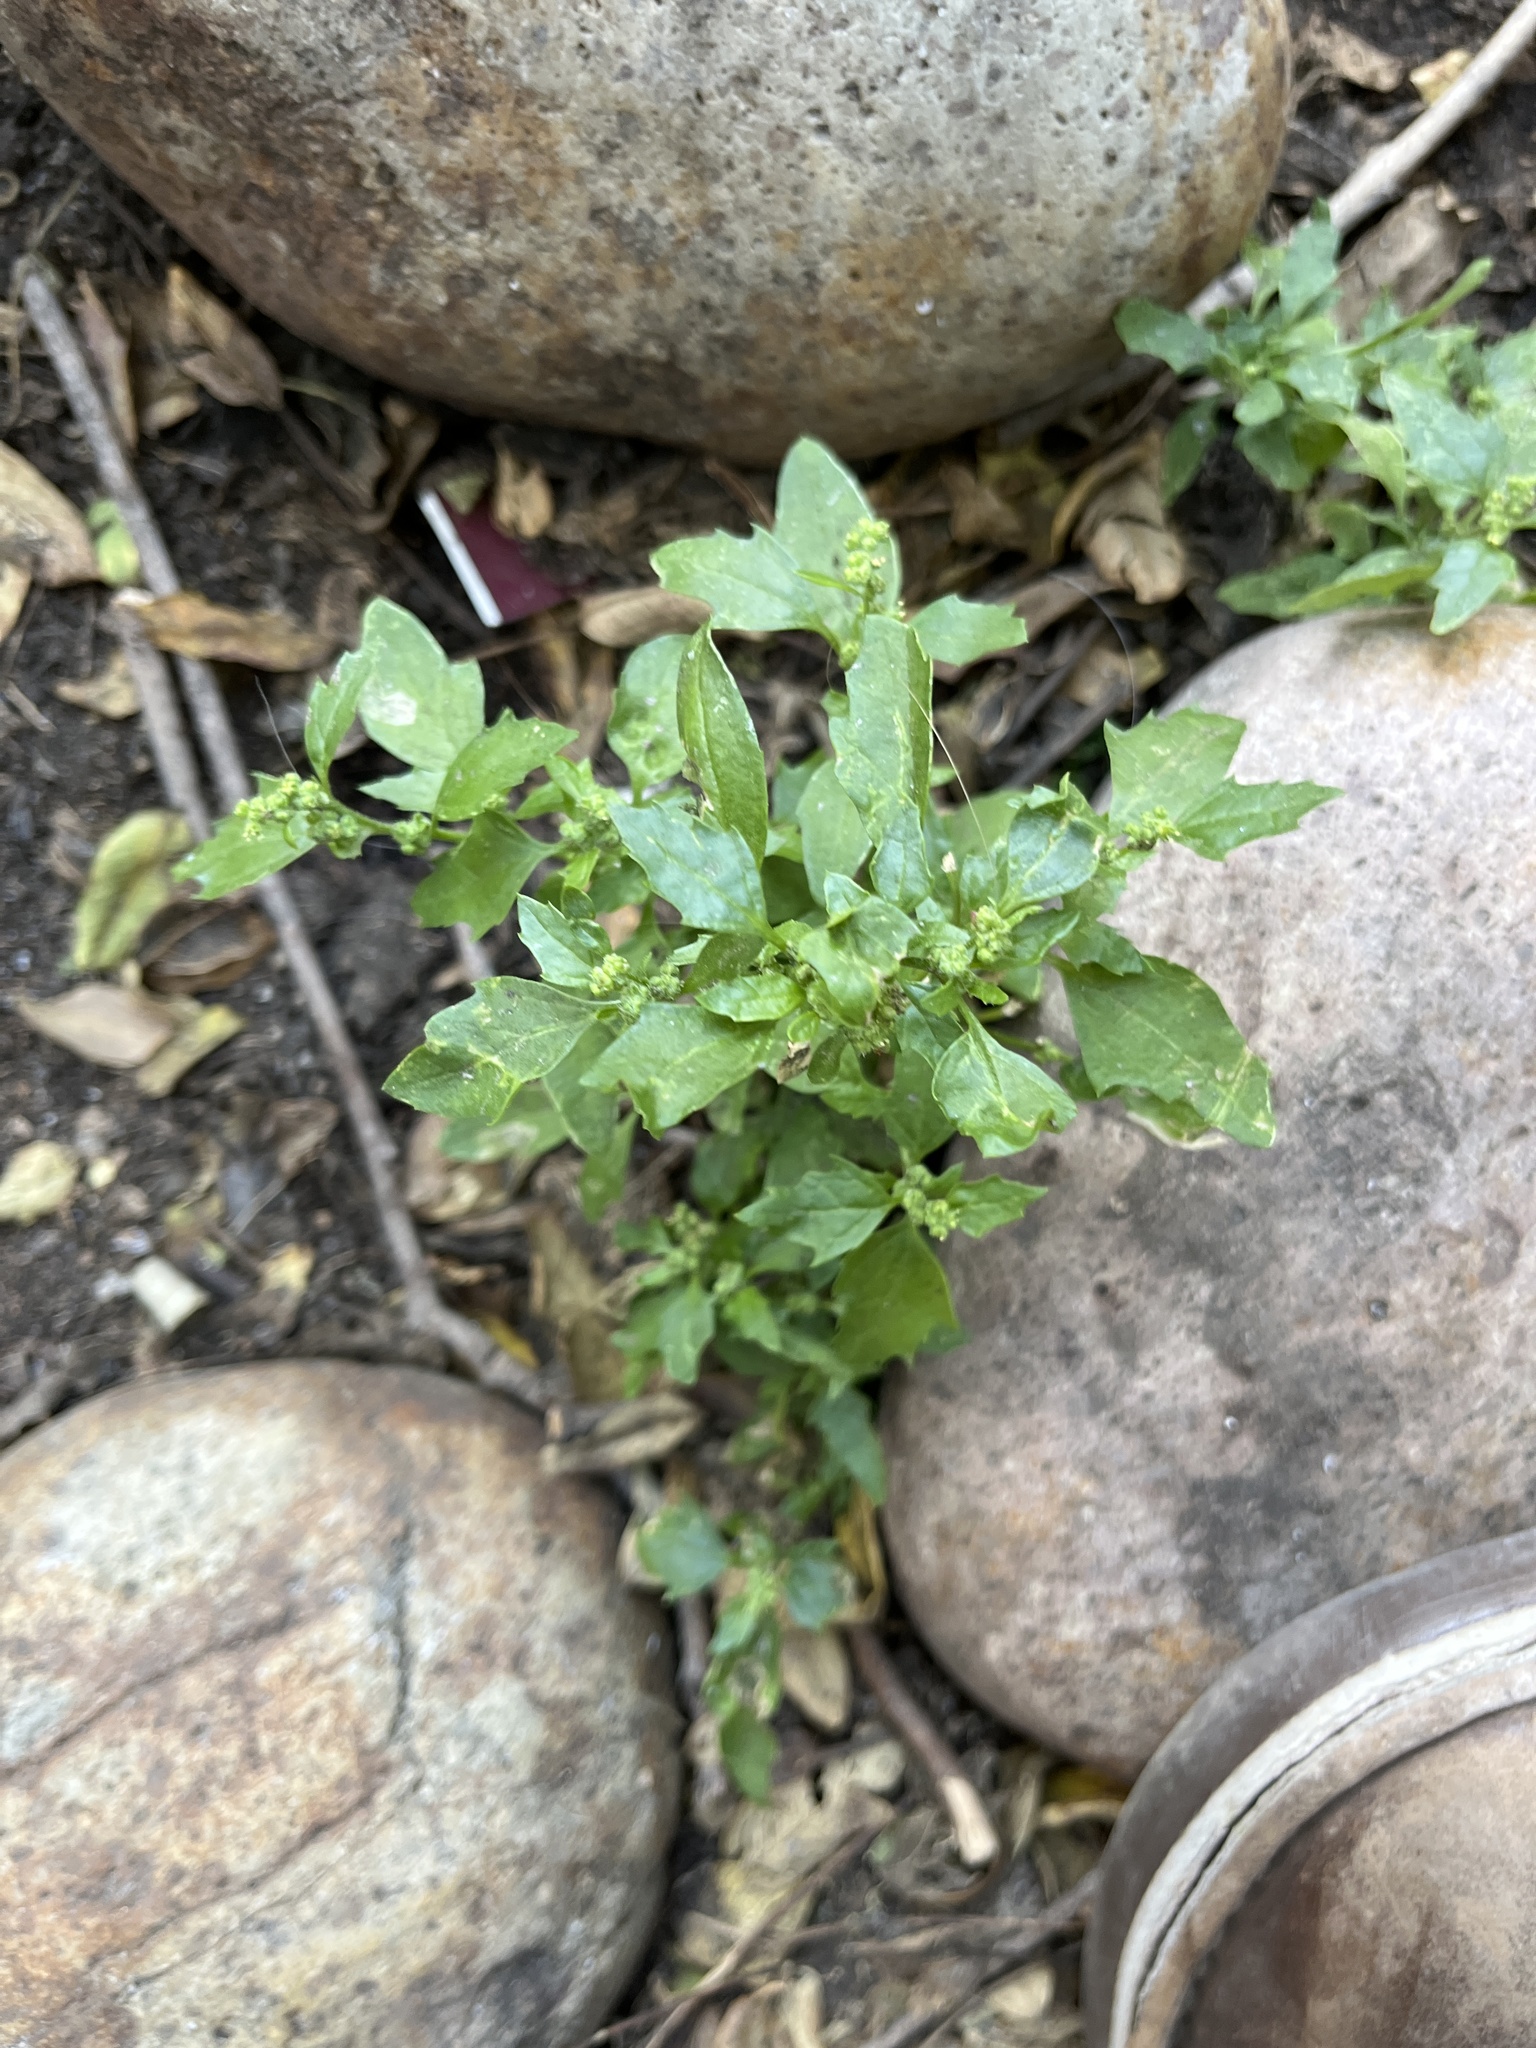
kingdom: Plantae
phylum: Tracheophyta
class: Magnoliopsida
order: Caryophyllales
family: Amaranthaceae
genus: Chenopodiastrum
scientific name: Chenopodiastrum murale
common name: Sowbane
